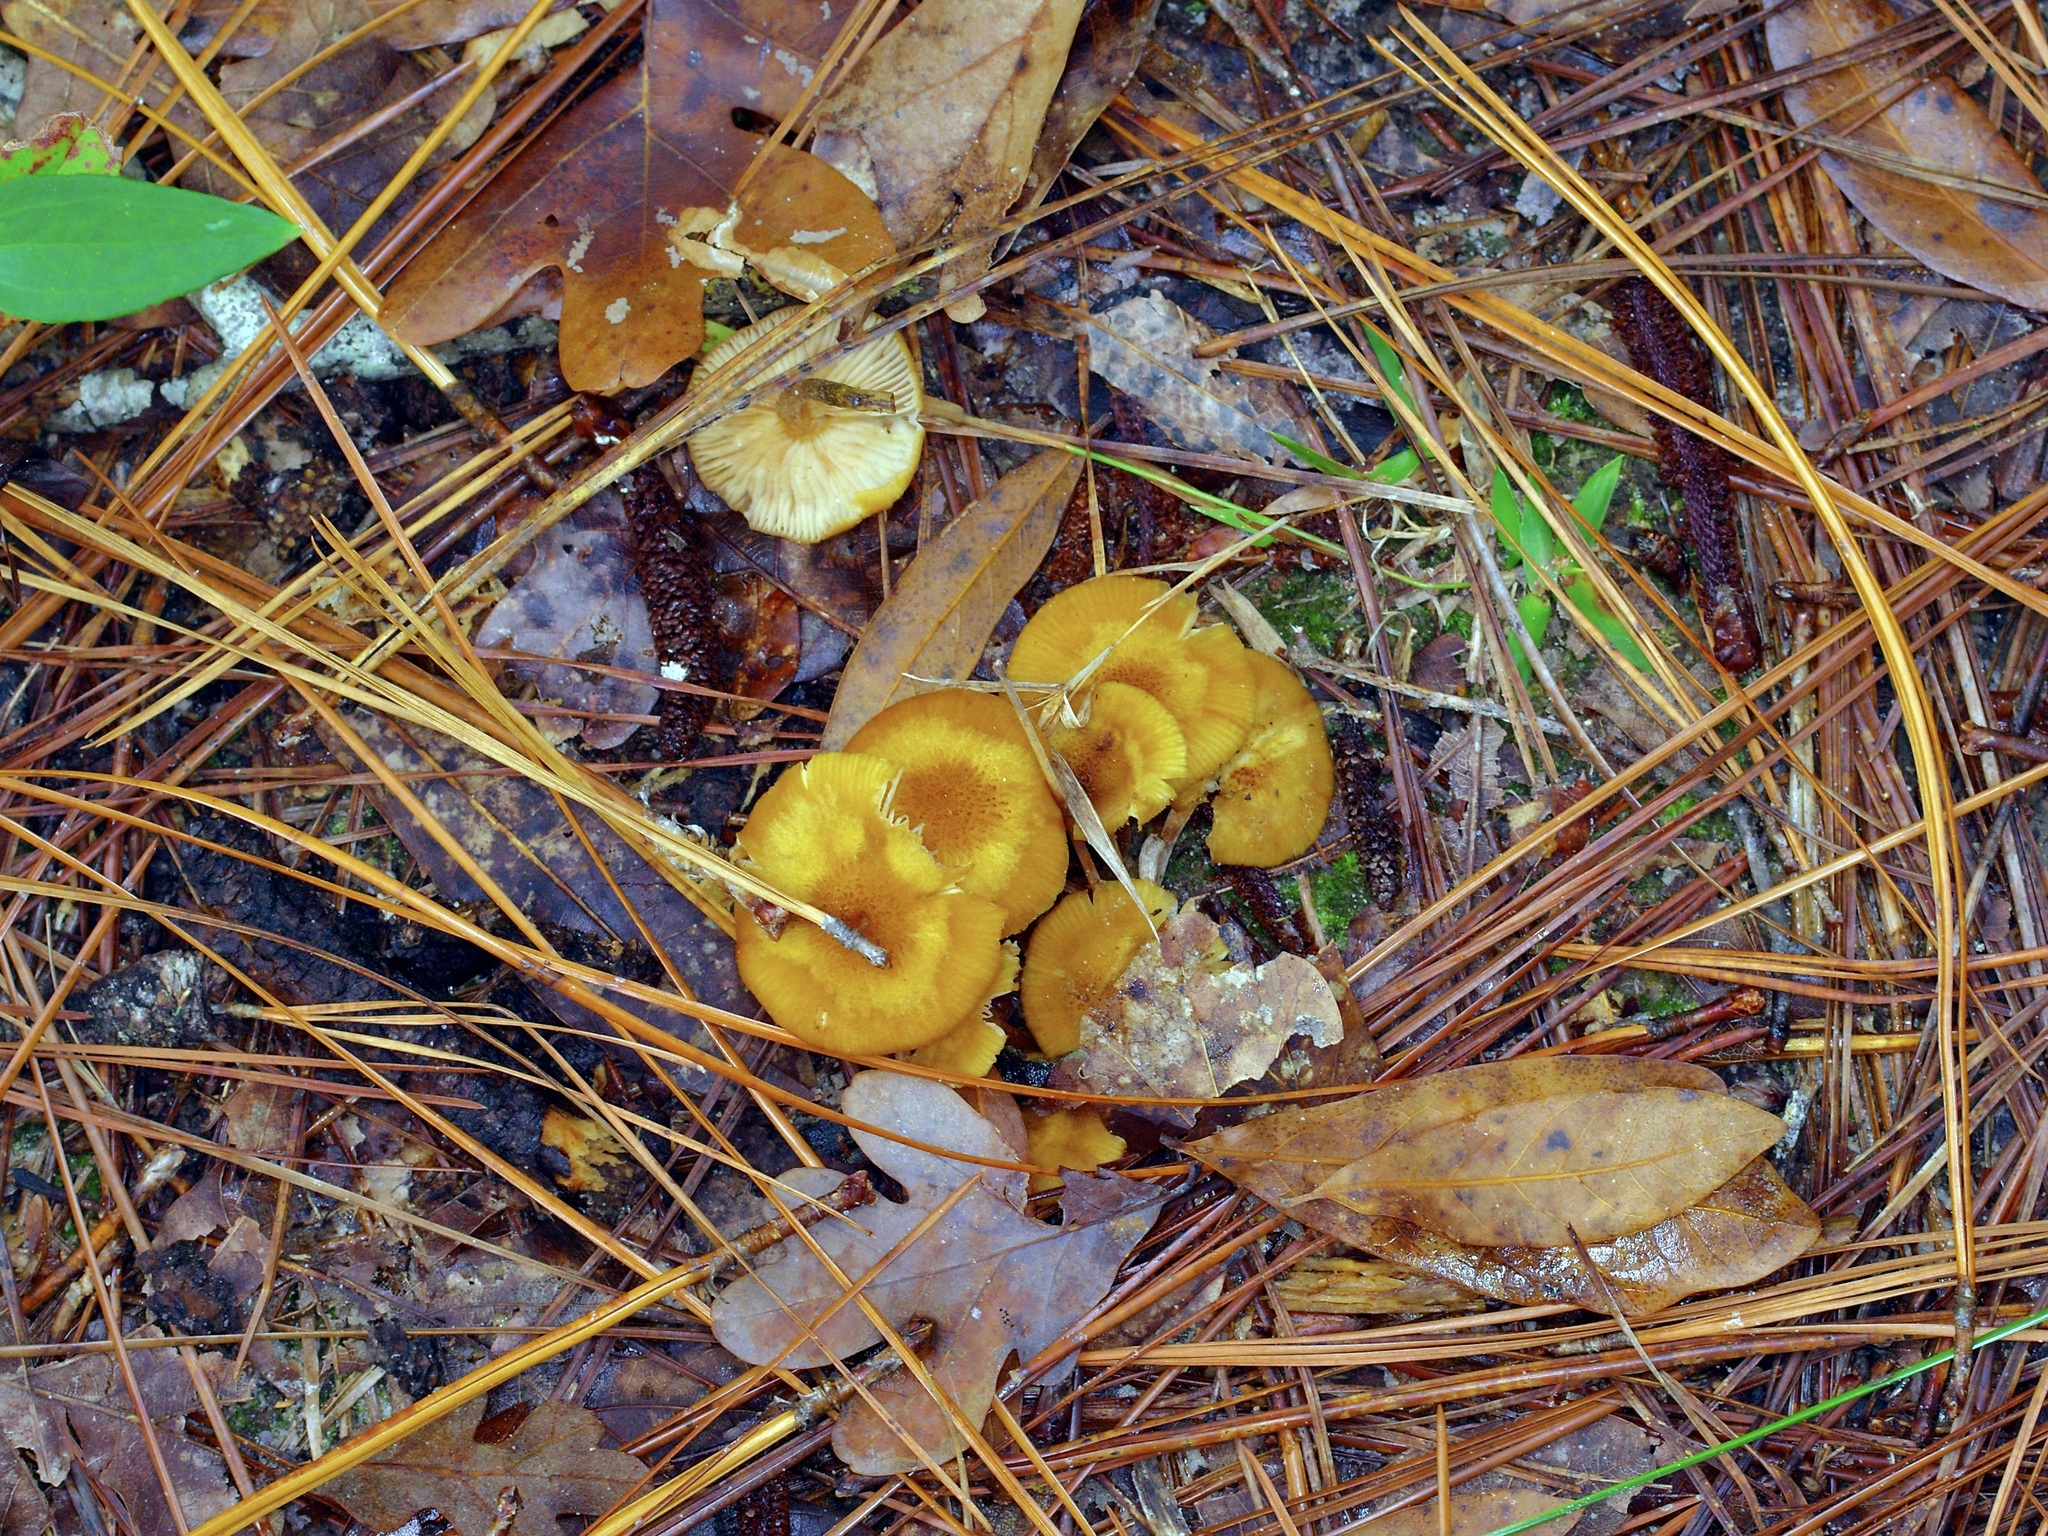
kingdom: Fungi
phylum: Basidiomycota
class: Agaricomycetes
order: Agaricales
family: Physalacriaceae
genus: Desarmillaria
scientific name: Desarmillaria caespitosa
